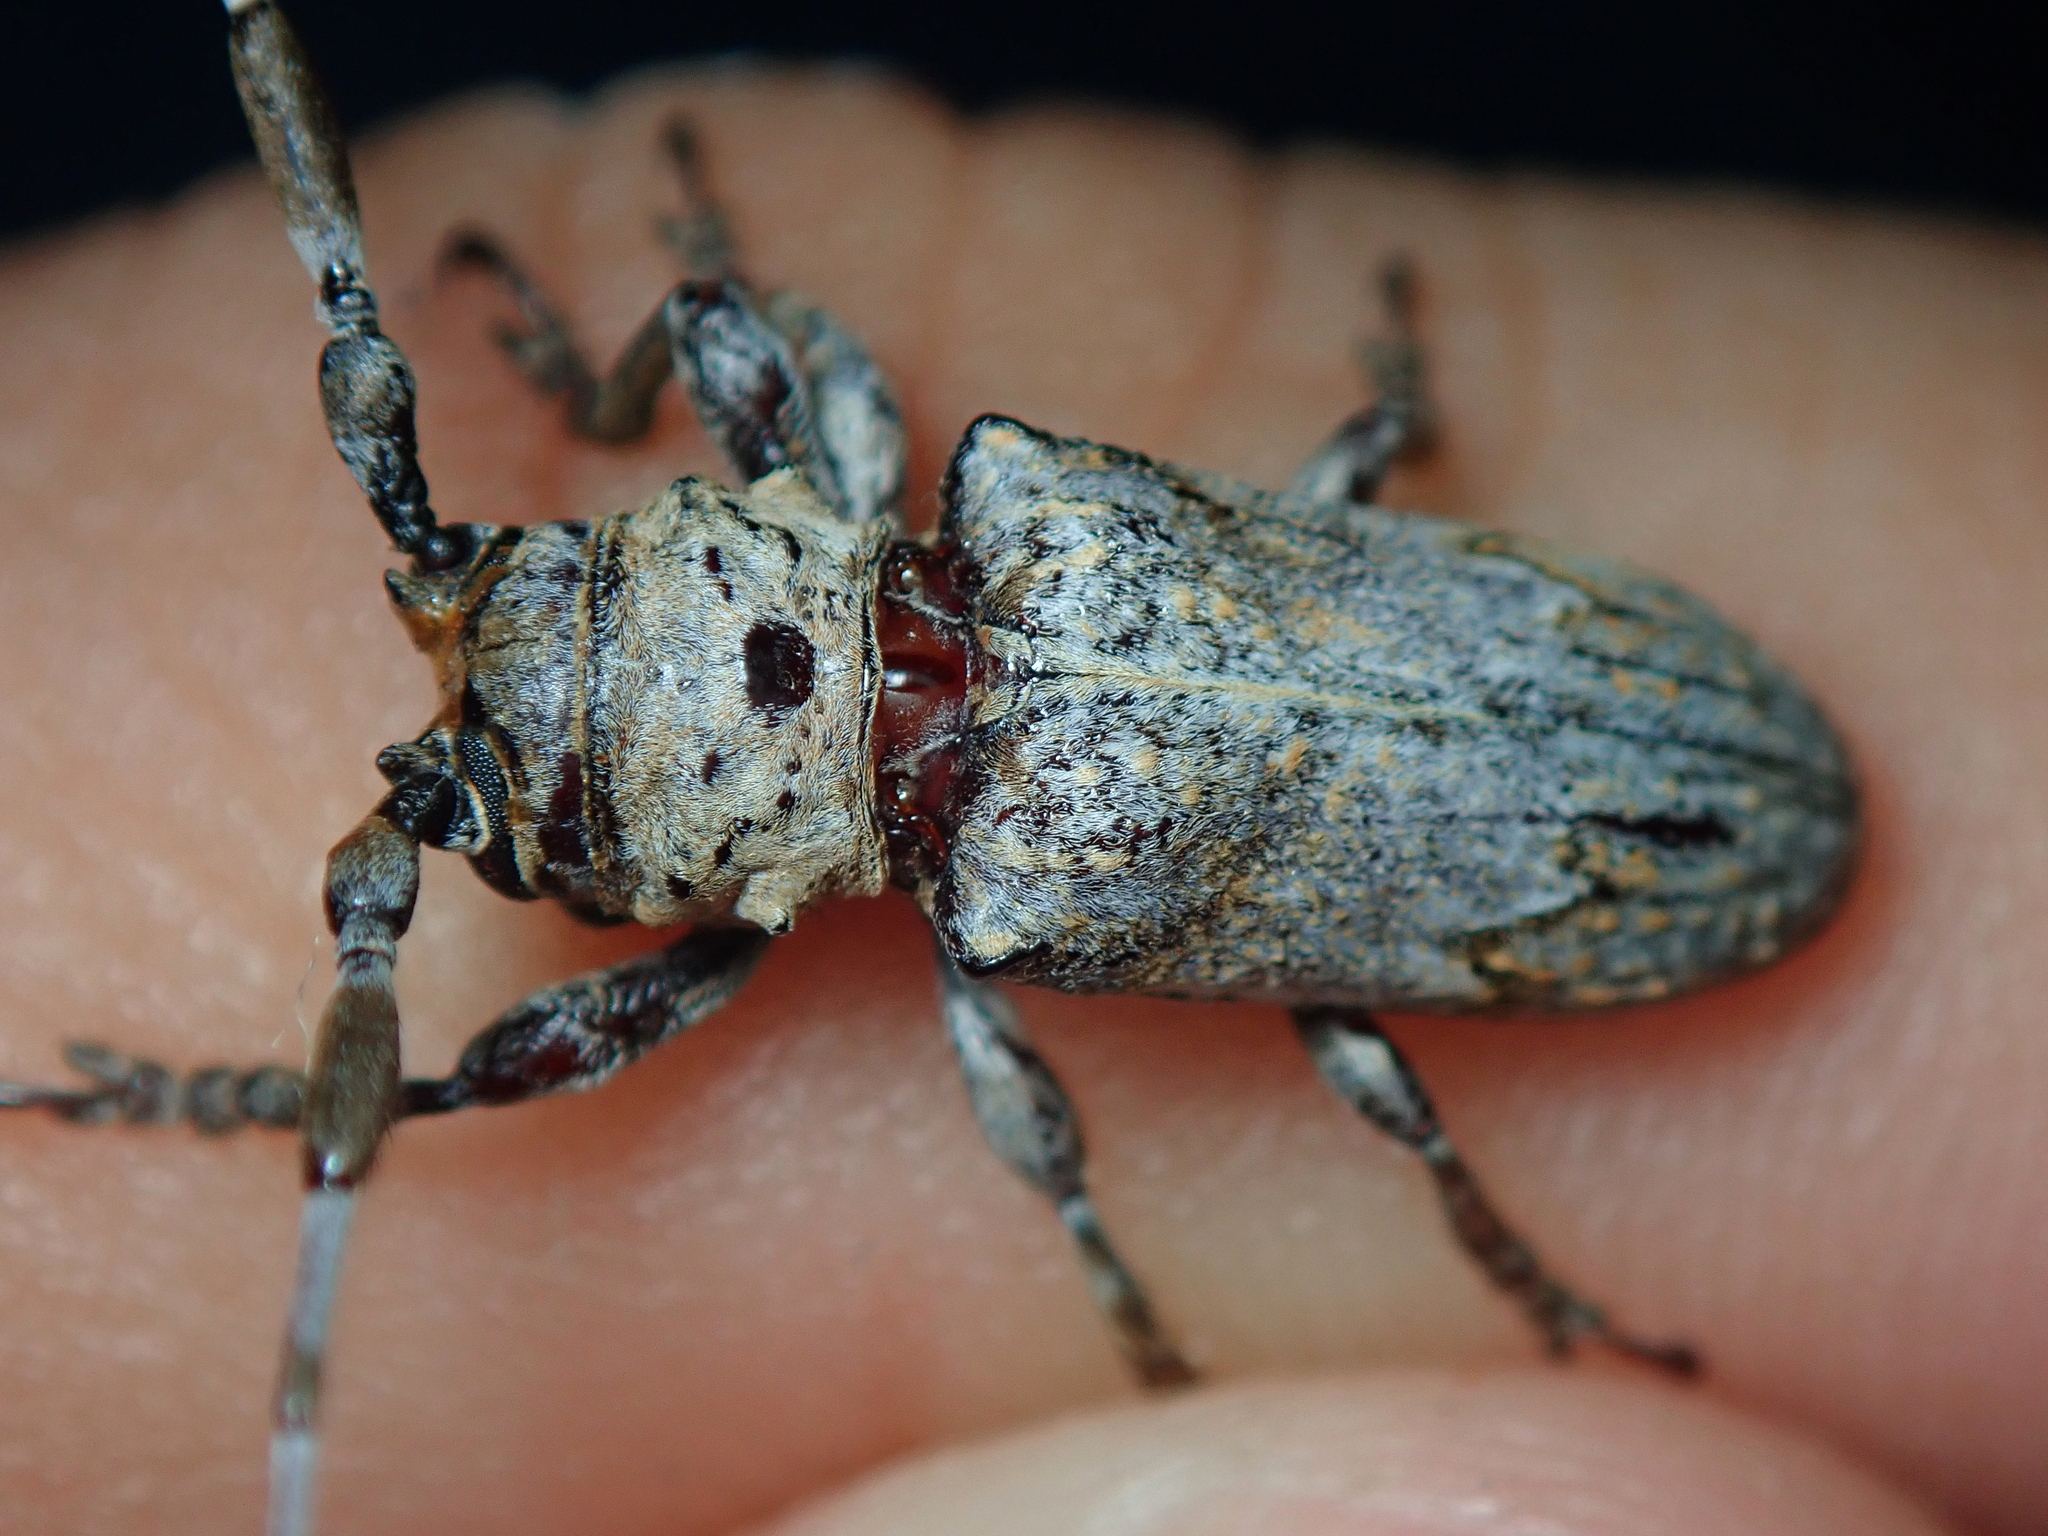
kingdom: Animalia
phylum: Arthropoda
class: Insecta
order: Coleoptera
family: Cerambycidae
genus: Psyllotoxus
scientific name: Psyllotoxus inexpectatus
